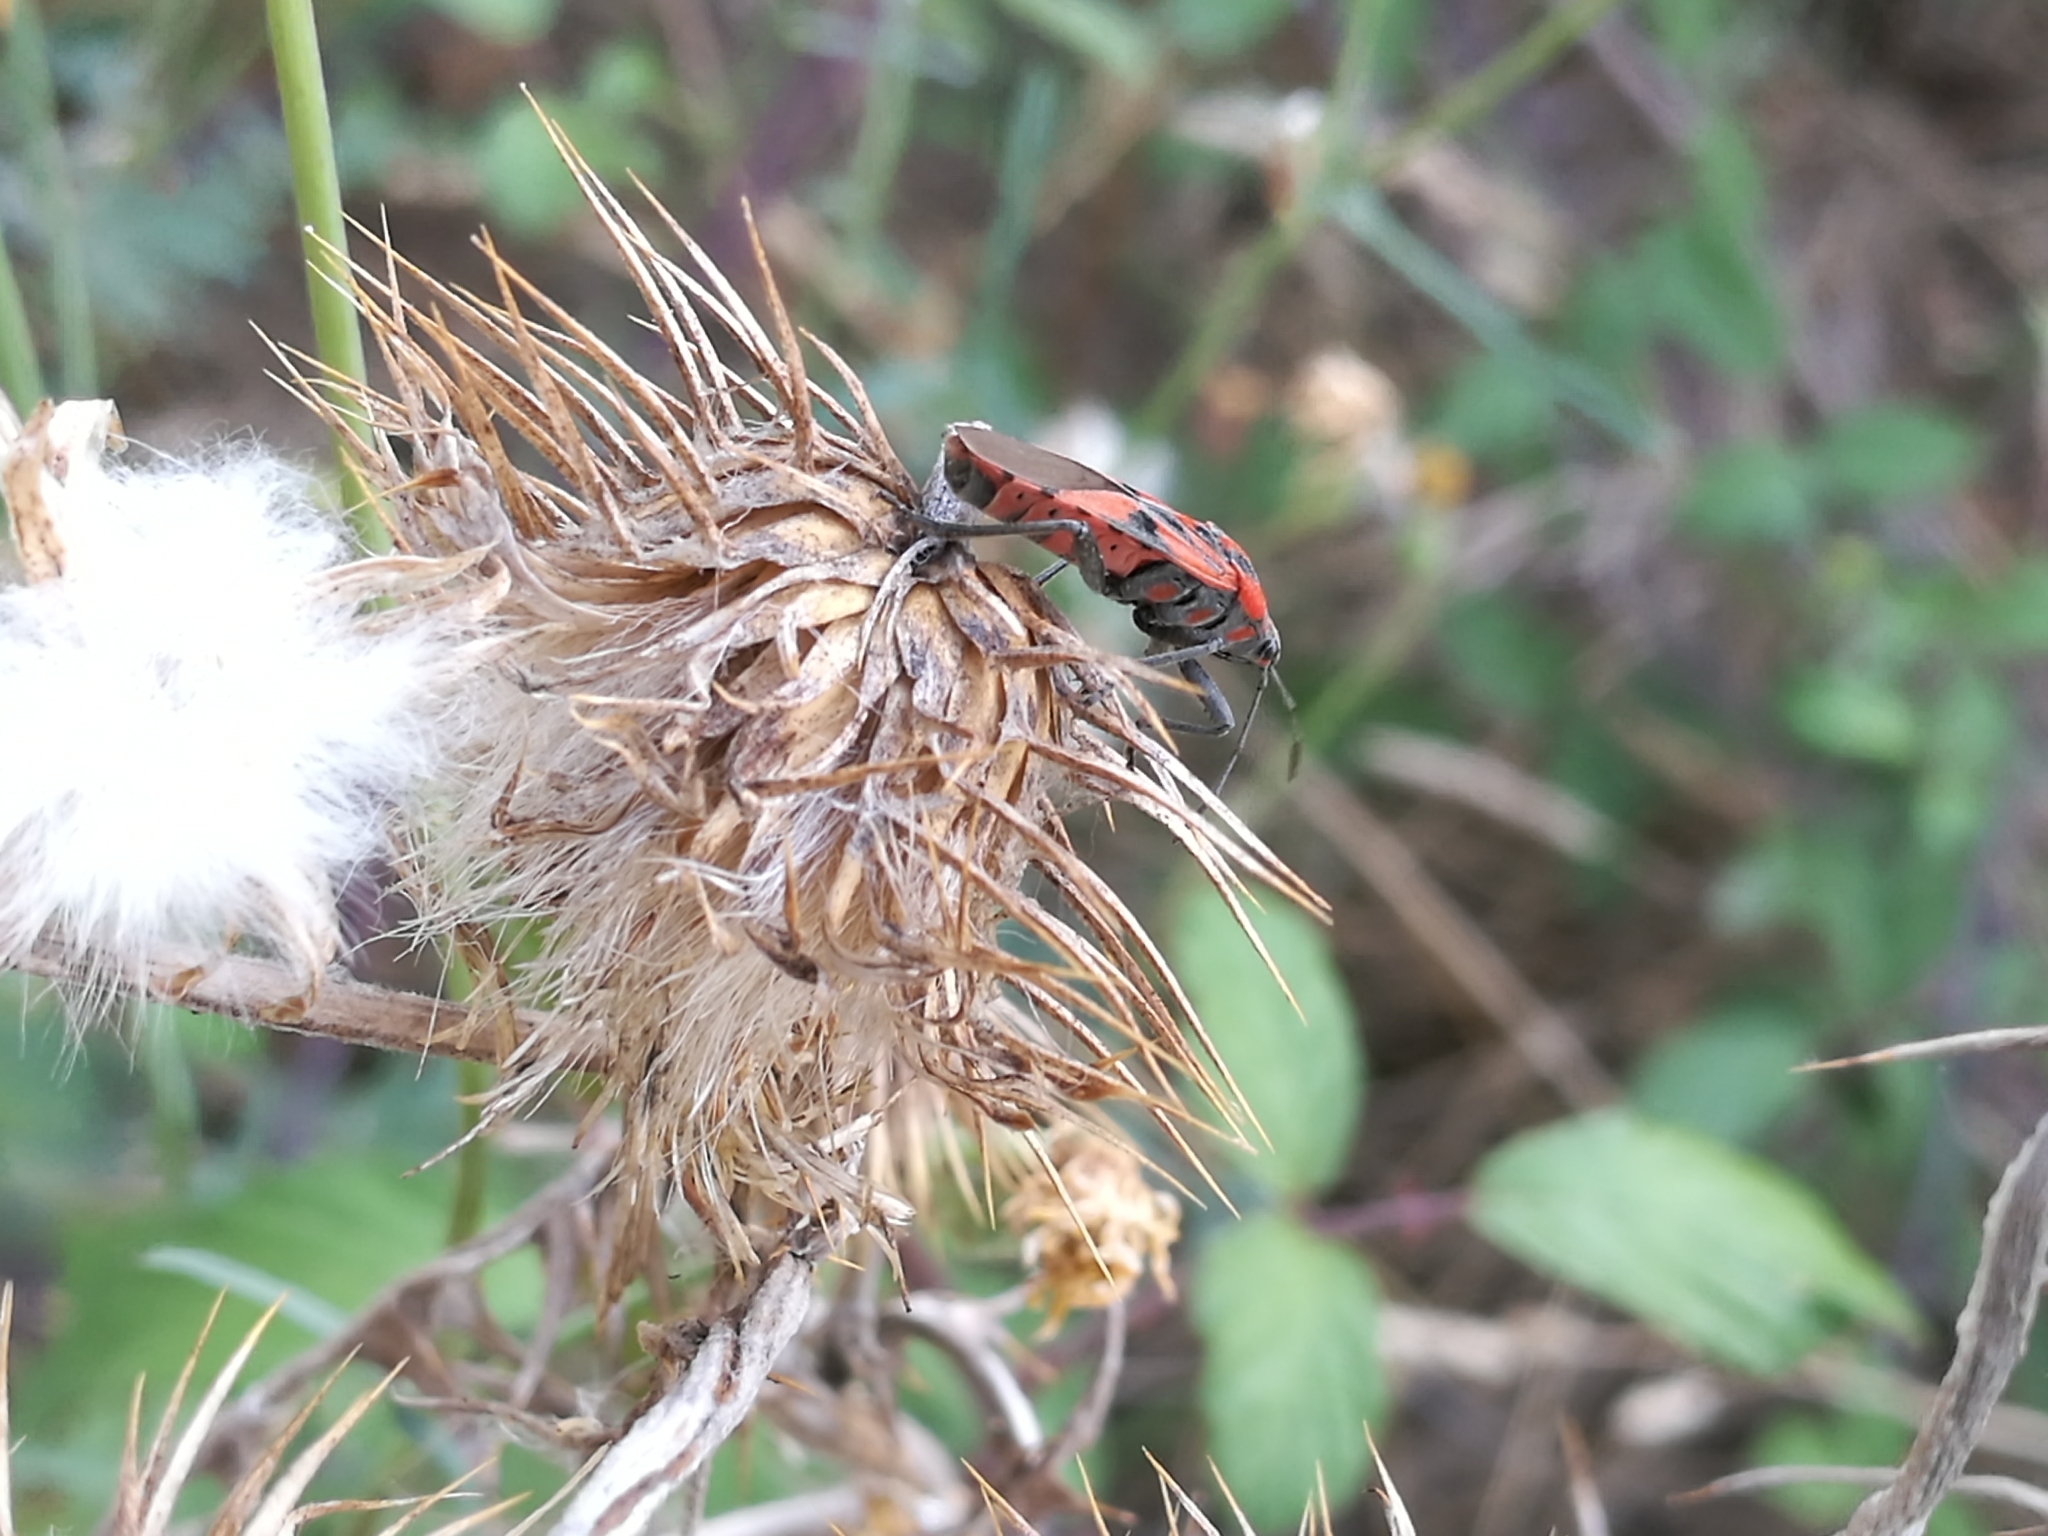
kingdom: Animalia
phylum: Arthropoda
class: Insecta
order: Hemiptera
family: Lygaeidae
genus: Spilostethus
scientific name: Spilostethus furcula
